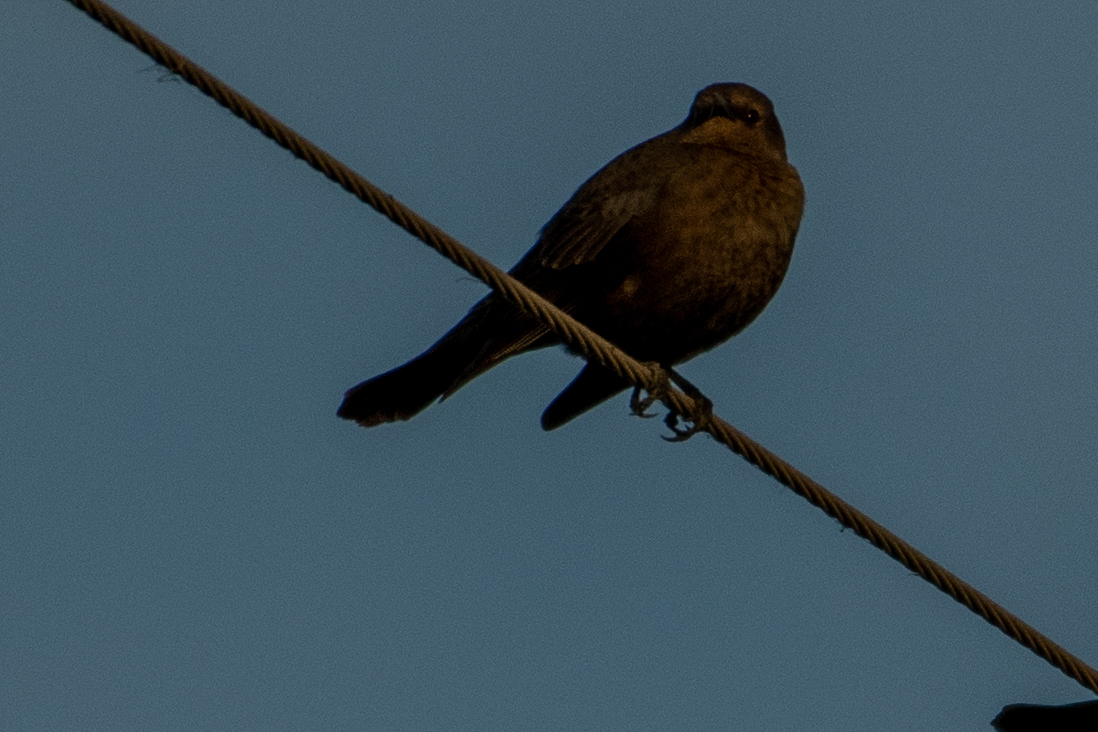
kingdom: Animalia
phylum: Chordata
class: Aves
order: Passeriformes
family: Icteridae
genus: Euphagus
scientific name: Euphagus cyanocephalus
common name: Brewer's blackbird
